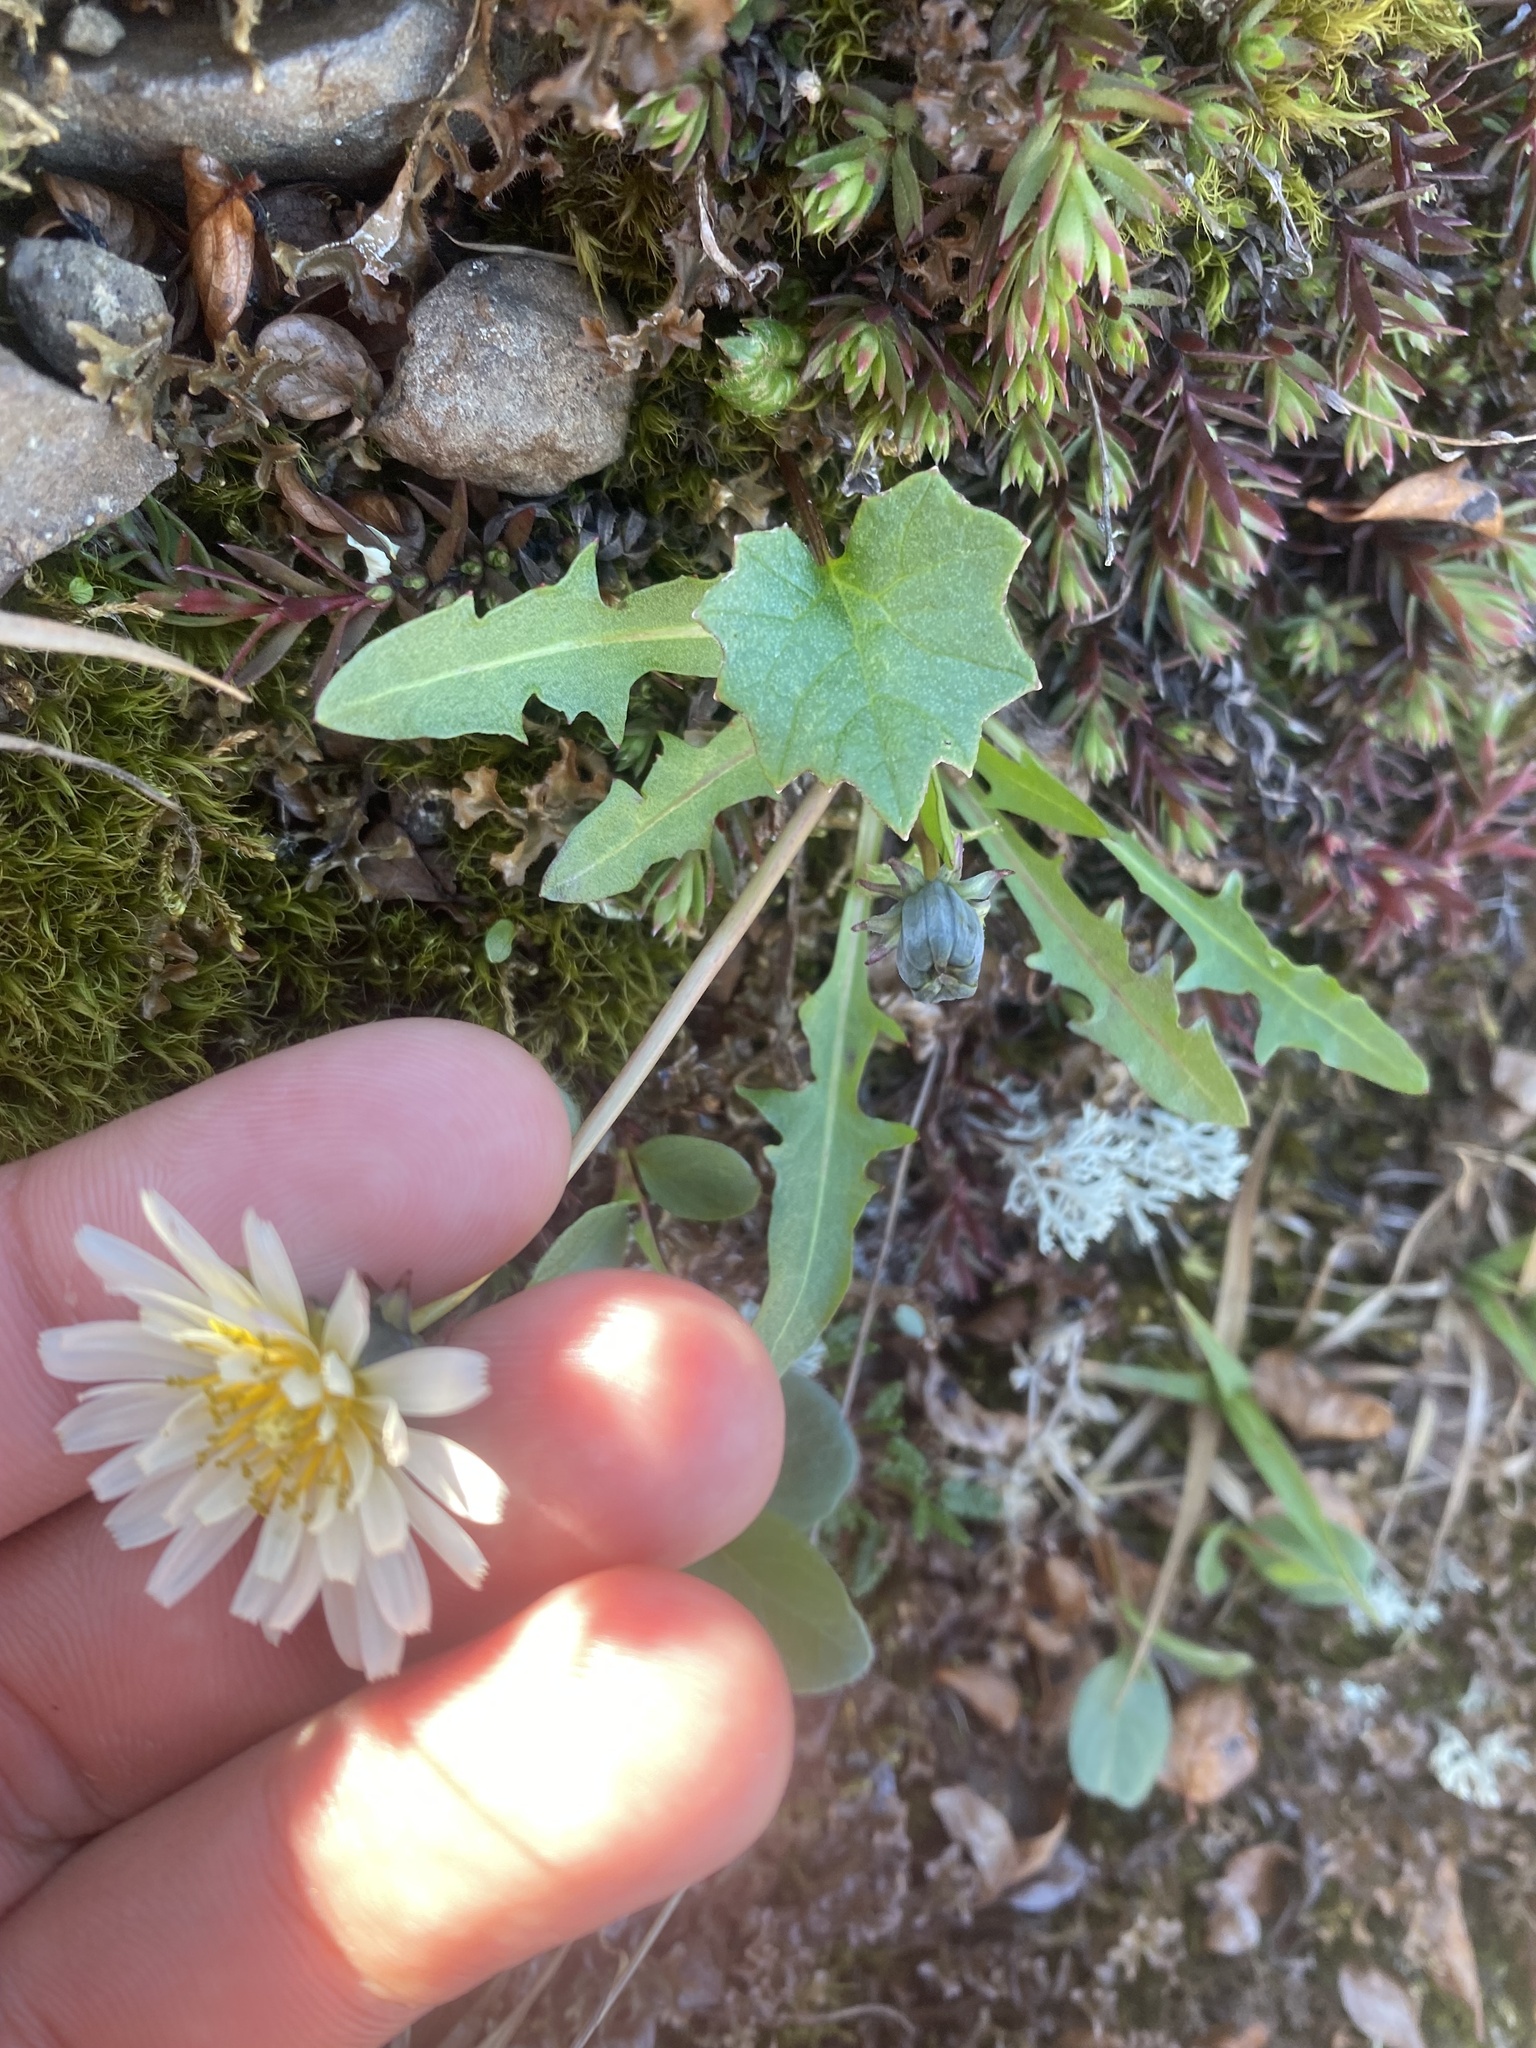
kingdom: Plantae
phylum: Tracheophyta
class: Magnoliopsida
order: Asterales
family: Asteraceae
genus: Taraxacum
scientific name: Taraxacum arcticum
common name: Arctic dandelion
